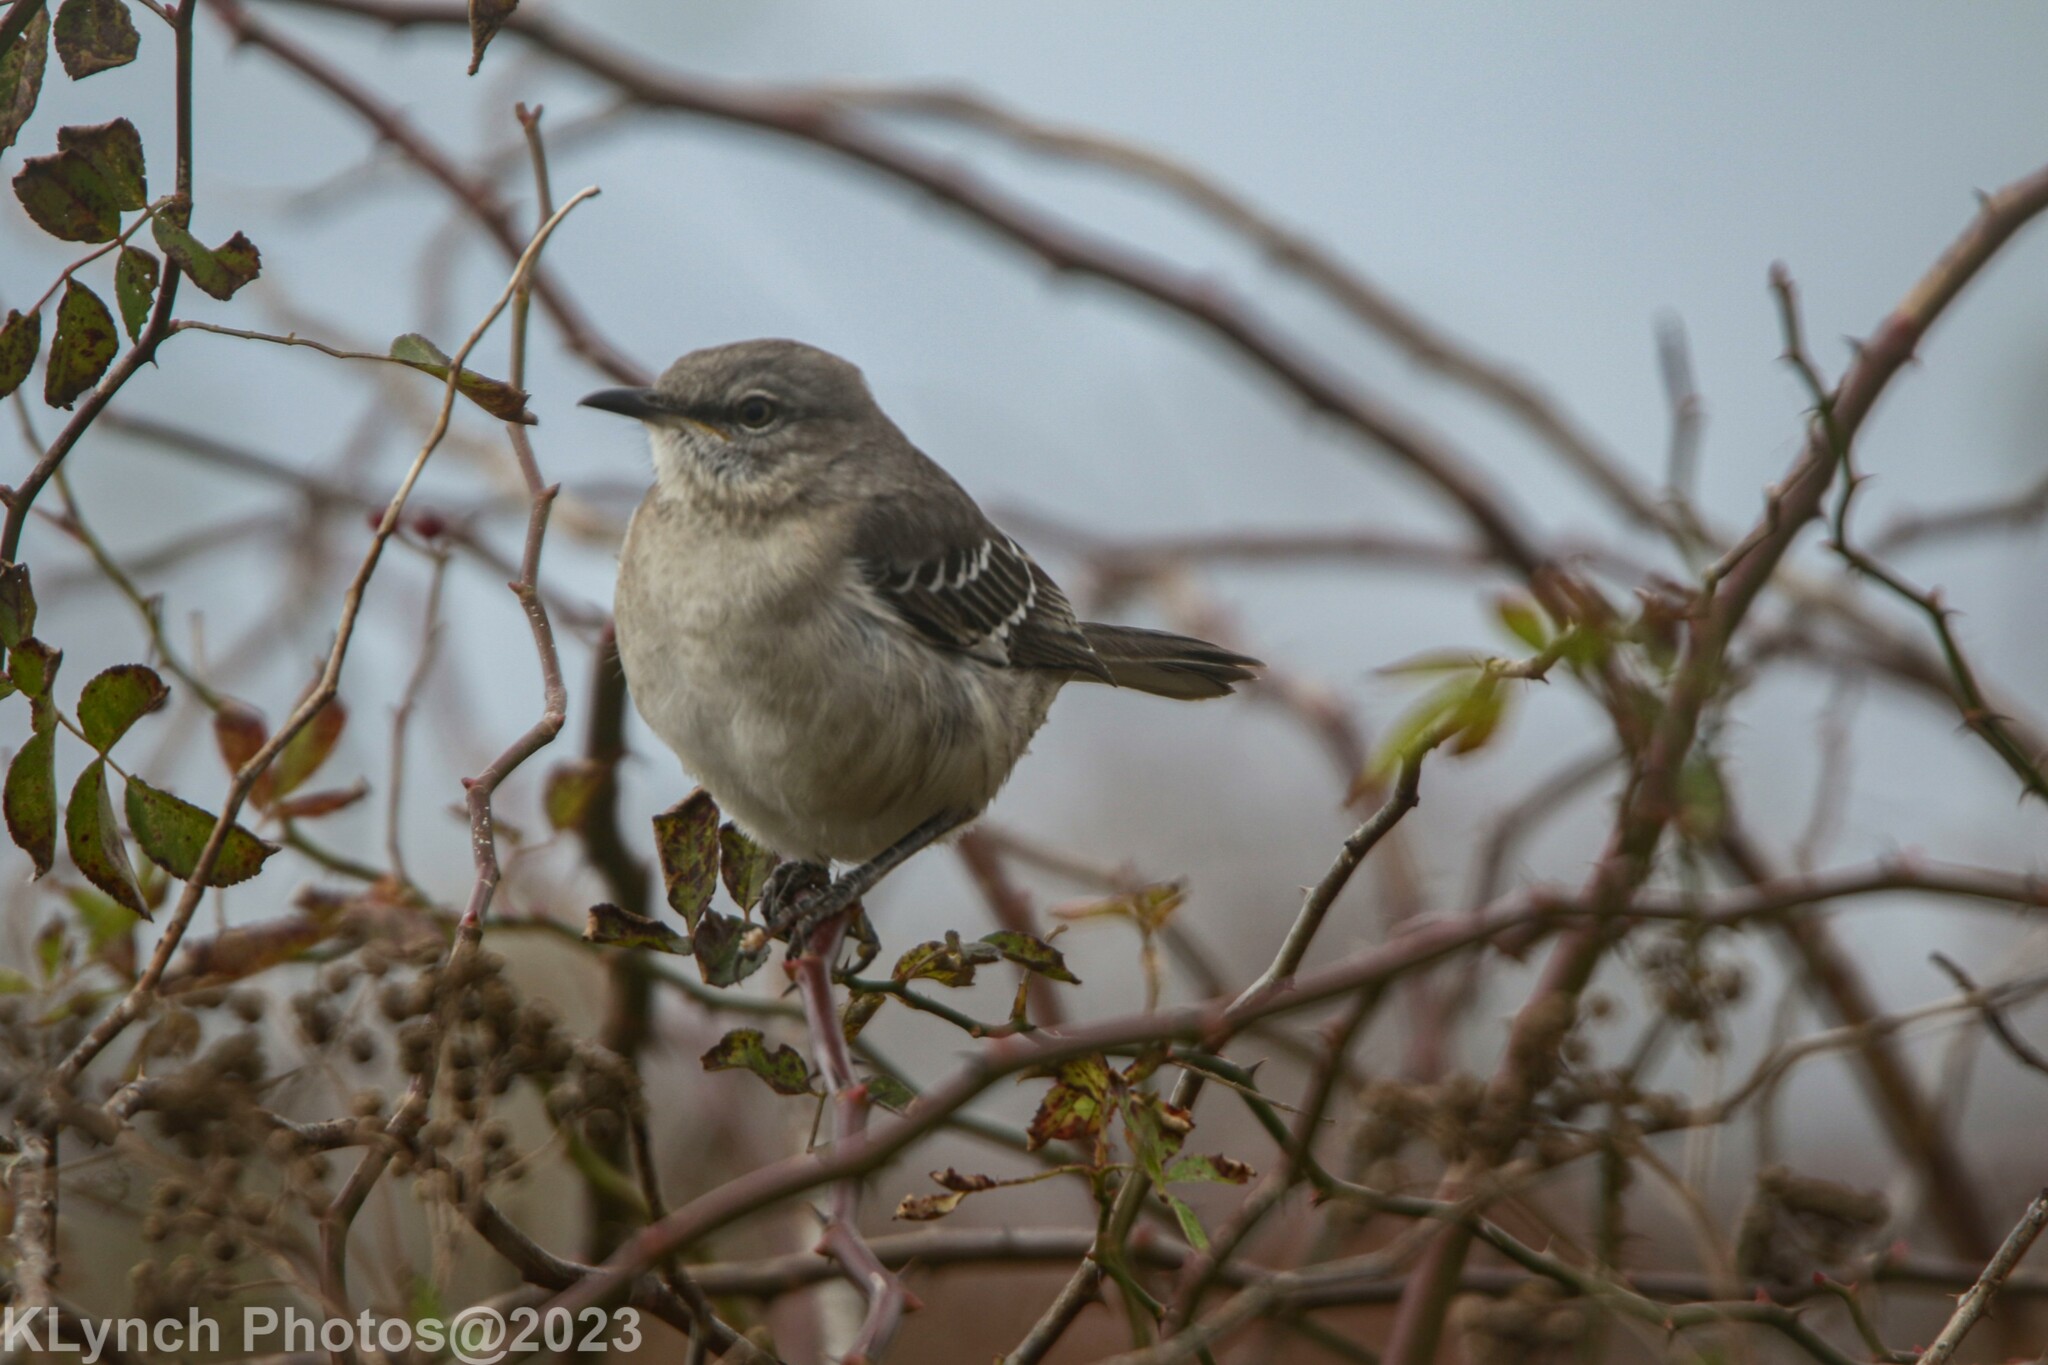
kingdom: Animalia
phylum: Chordata
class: Aves
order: Passeriformes
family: Mimidae
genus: Mimus
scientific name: Mimus polyglottos
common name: Northern mockingbird
